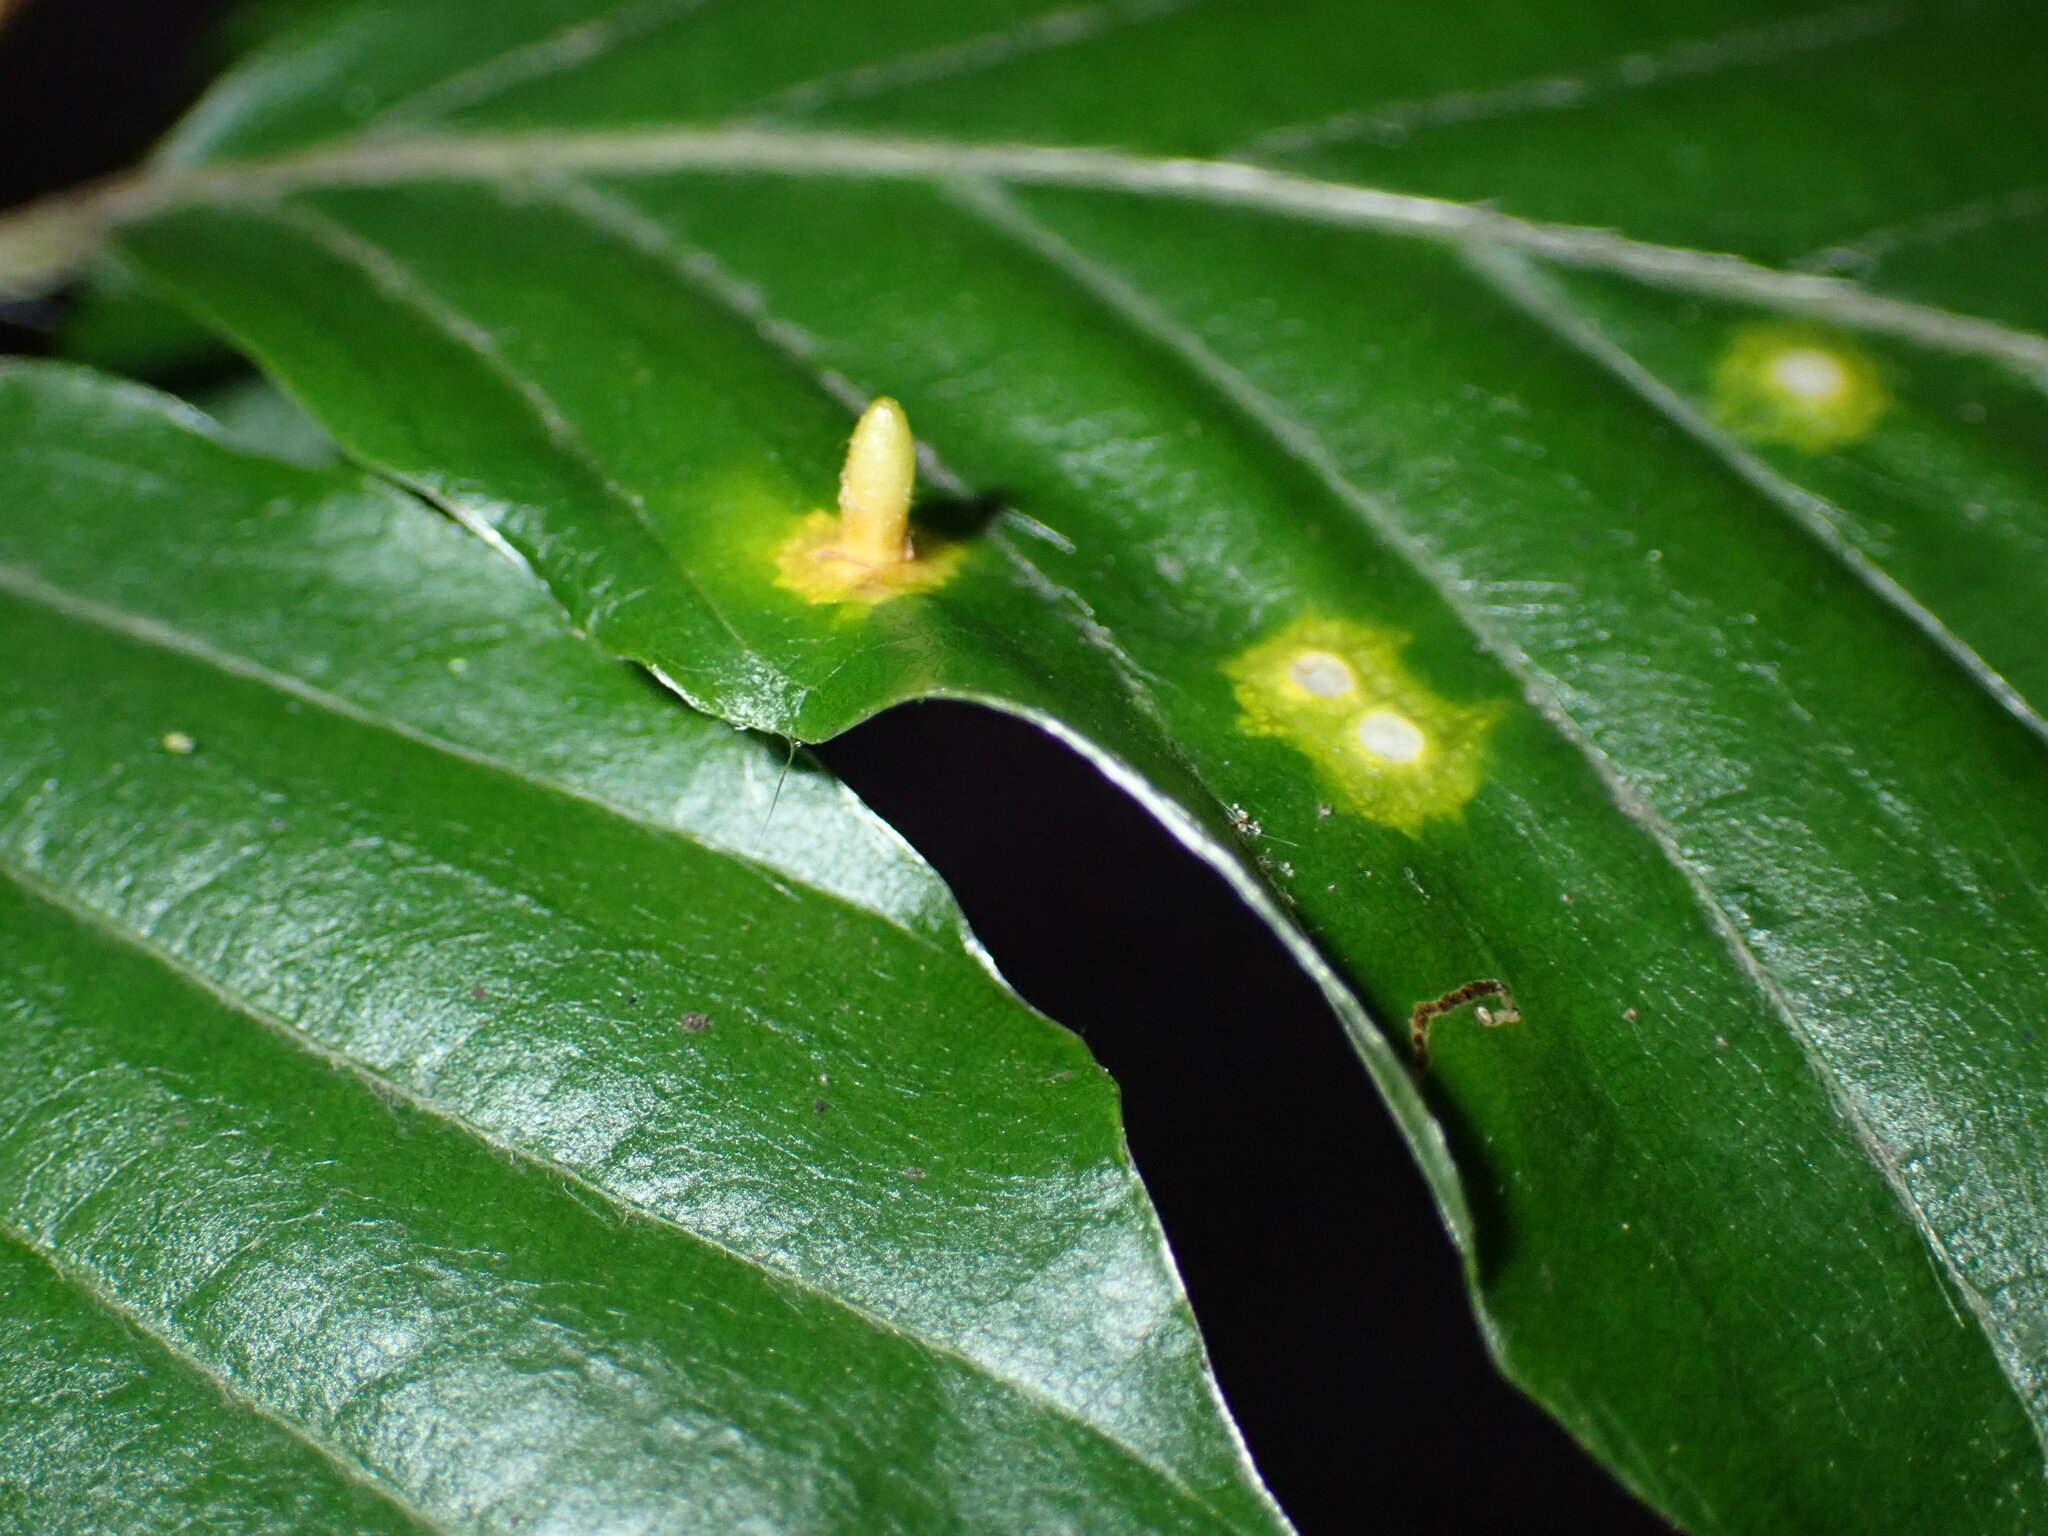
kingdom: Animalia
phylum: Arthropoda
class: Insecta
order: Diptera
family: Cecidomyiidae
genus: Hartigiola
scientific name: Hartigiola annulipes
